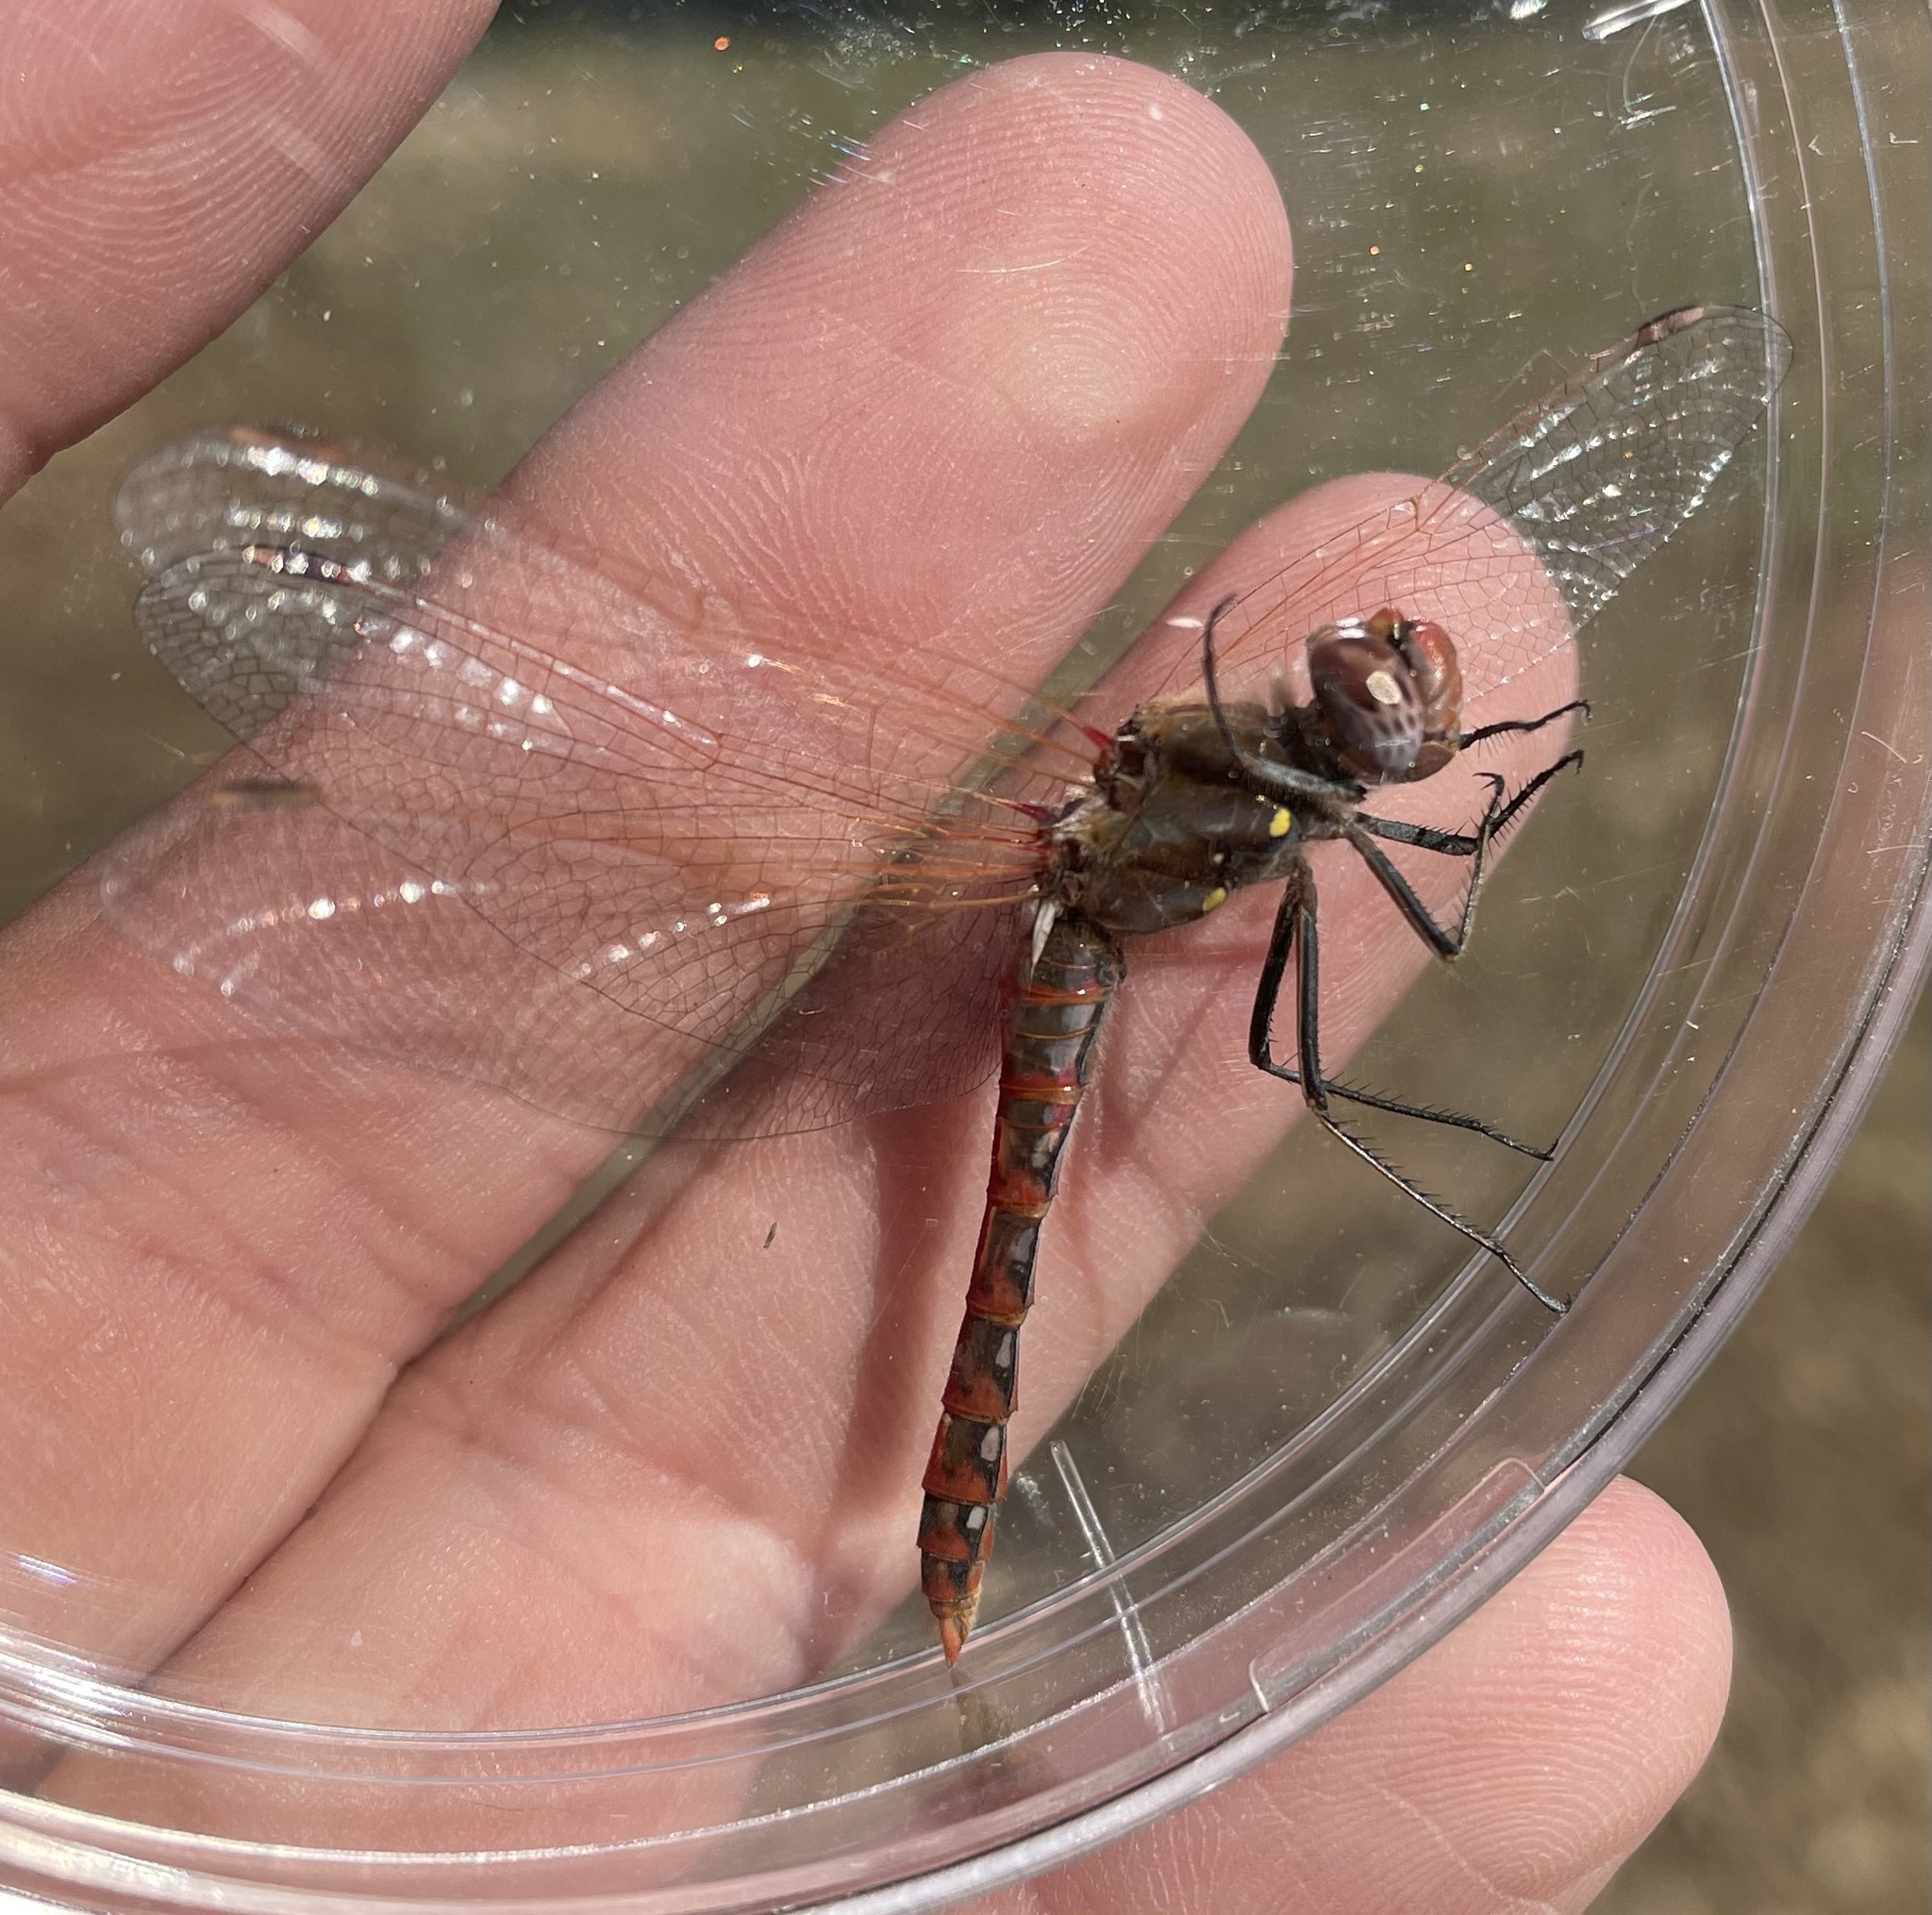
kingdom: Animalia
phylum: Arthropoda
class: Insecta
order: Odonata
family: Libellulidae
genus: Sympetrum
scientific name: Sympetrum corruptum
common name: Variegated meadowhawk
